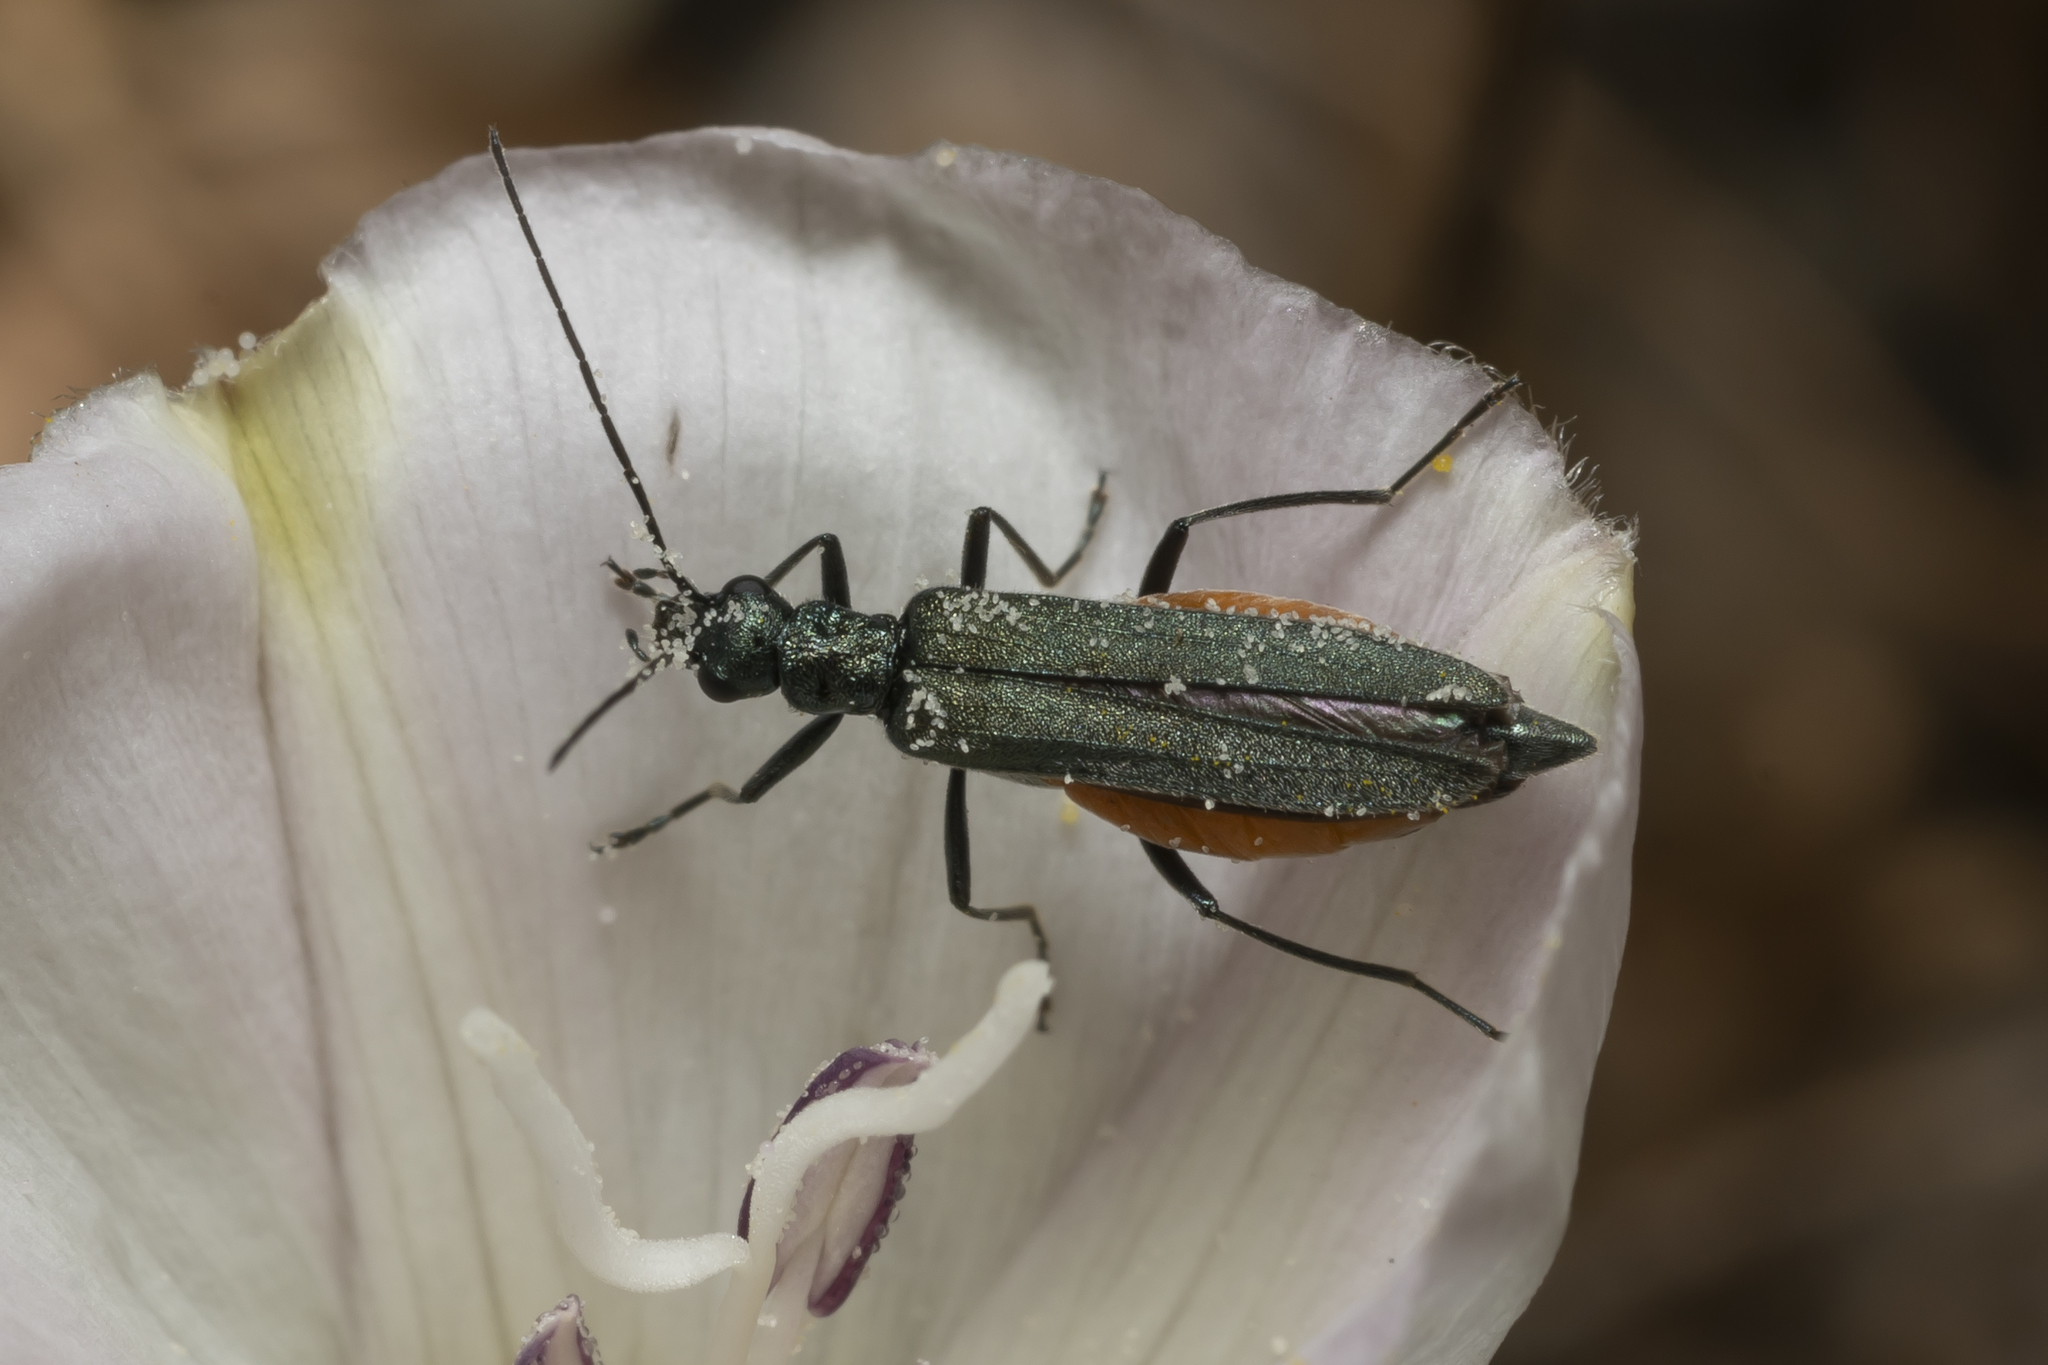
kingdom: Animalia
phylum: Arthropoda
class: Insecta
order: Coleoptera
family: Oedemeridae
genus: Oedemera
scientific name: Oedemera crassipes
